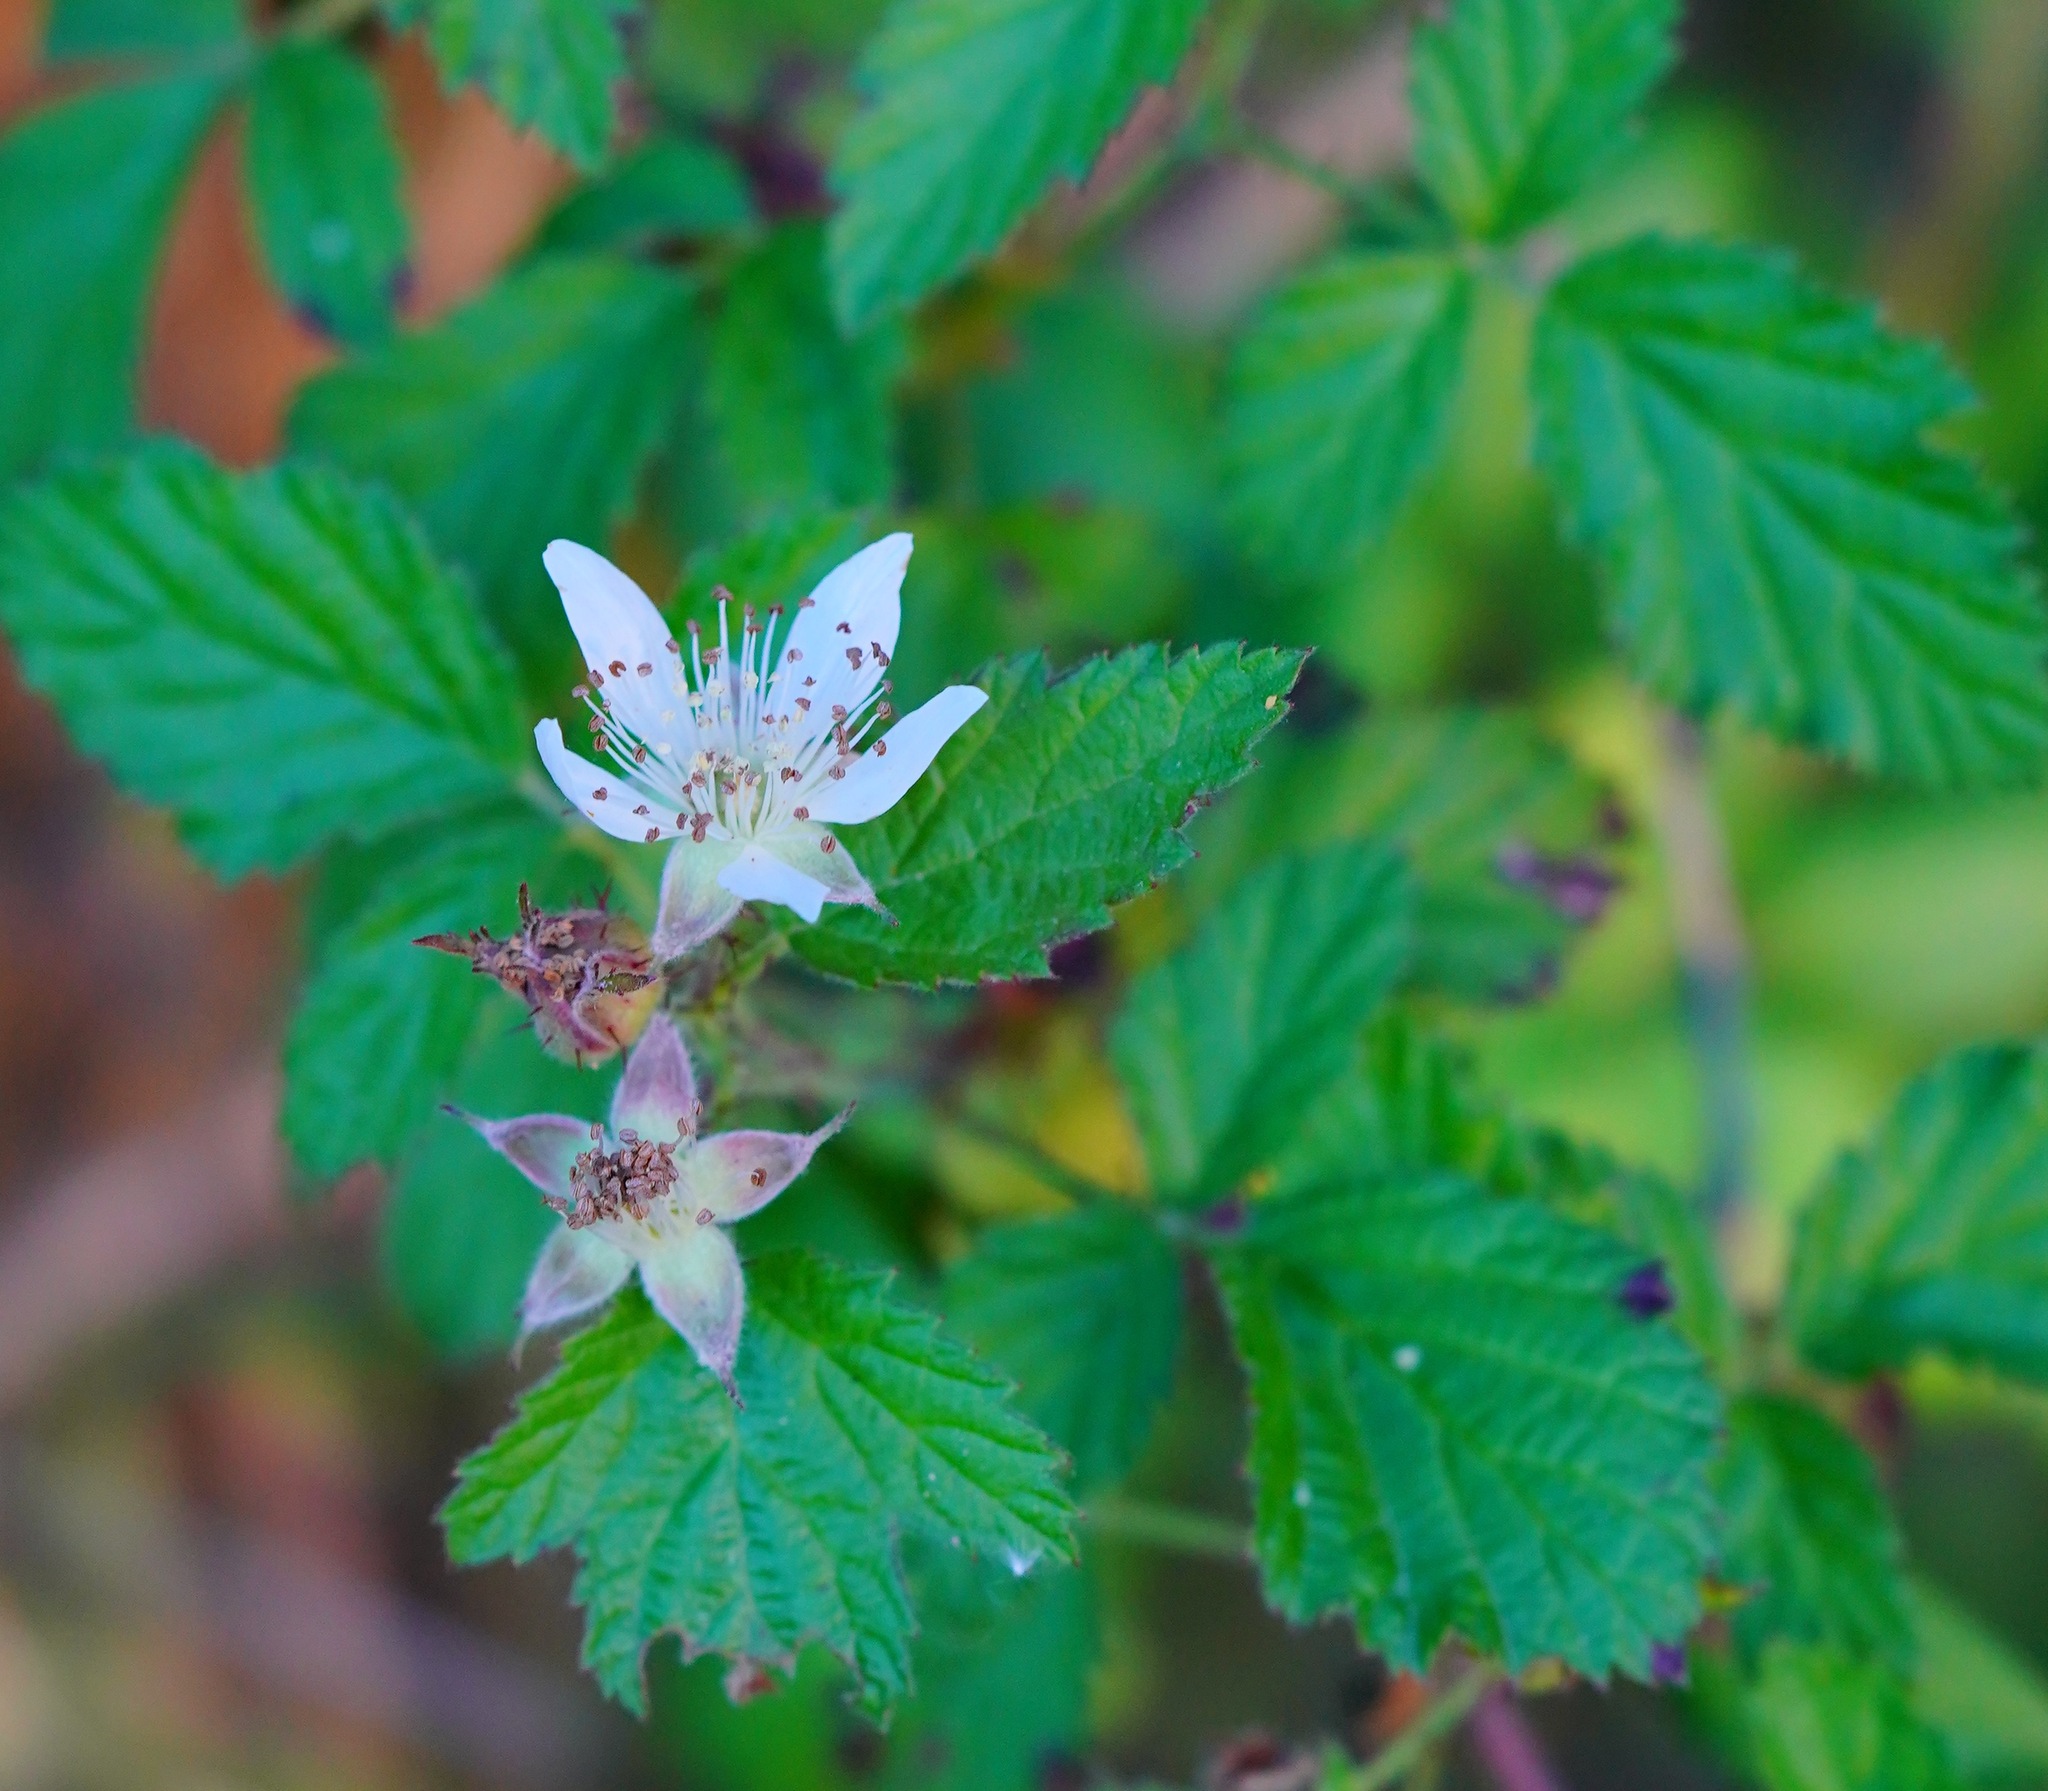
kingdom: Plantae
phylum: Tracheophyta
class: Magnoliopsida
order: Rosales
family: Rosaceae
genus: Rubus
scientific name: Rubus ursinus
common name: Pacific blackberry
